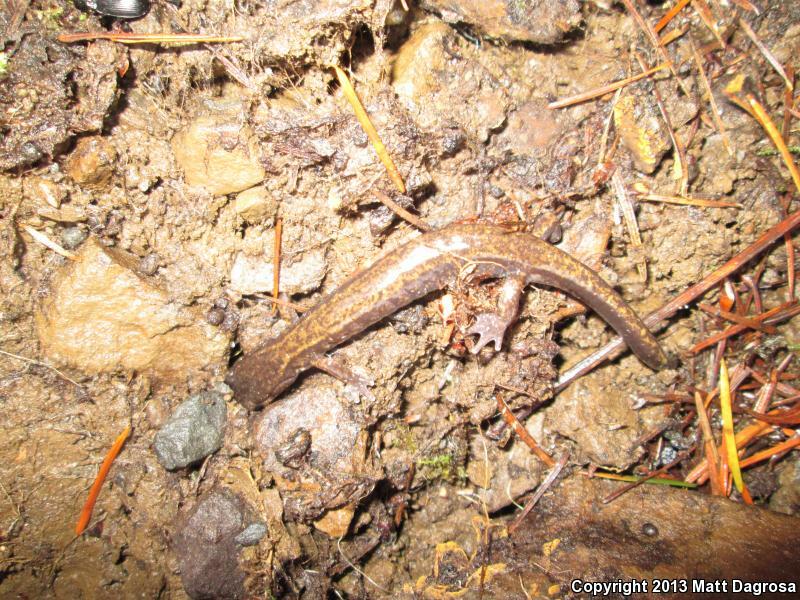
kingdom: Animalia
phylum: Chordata
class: Amphibia
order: Caudata
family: Plethodontidae
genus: Plethodon
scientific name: Plethodon dunni
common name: Dunn's salamander
